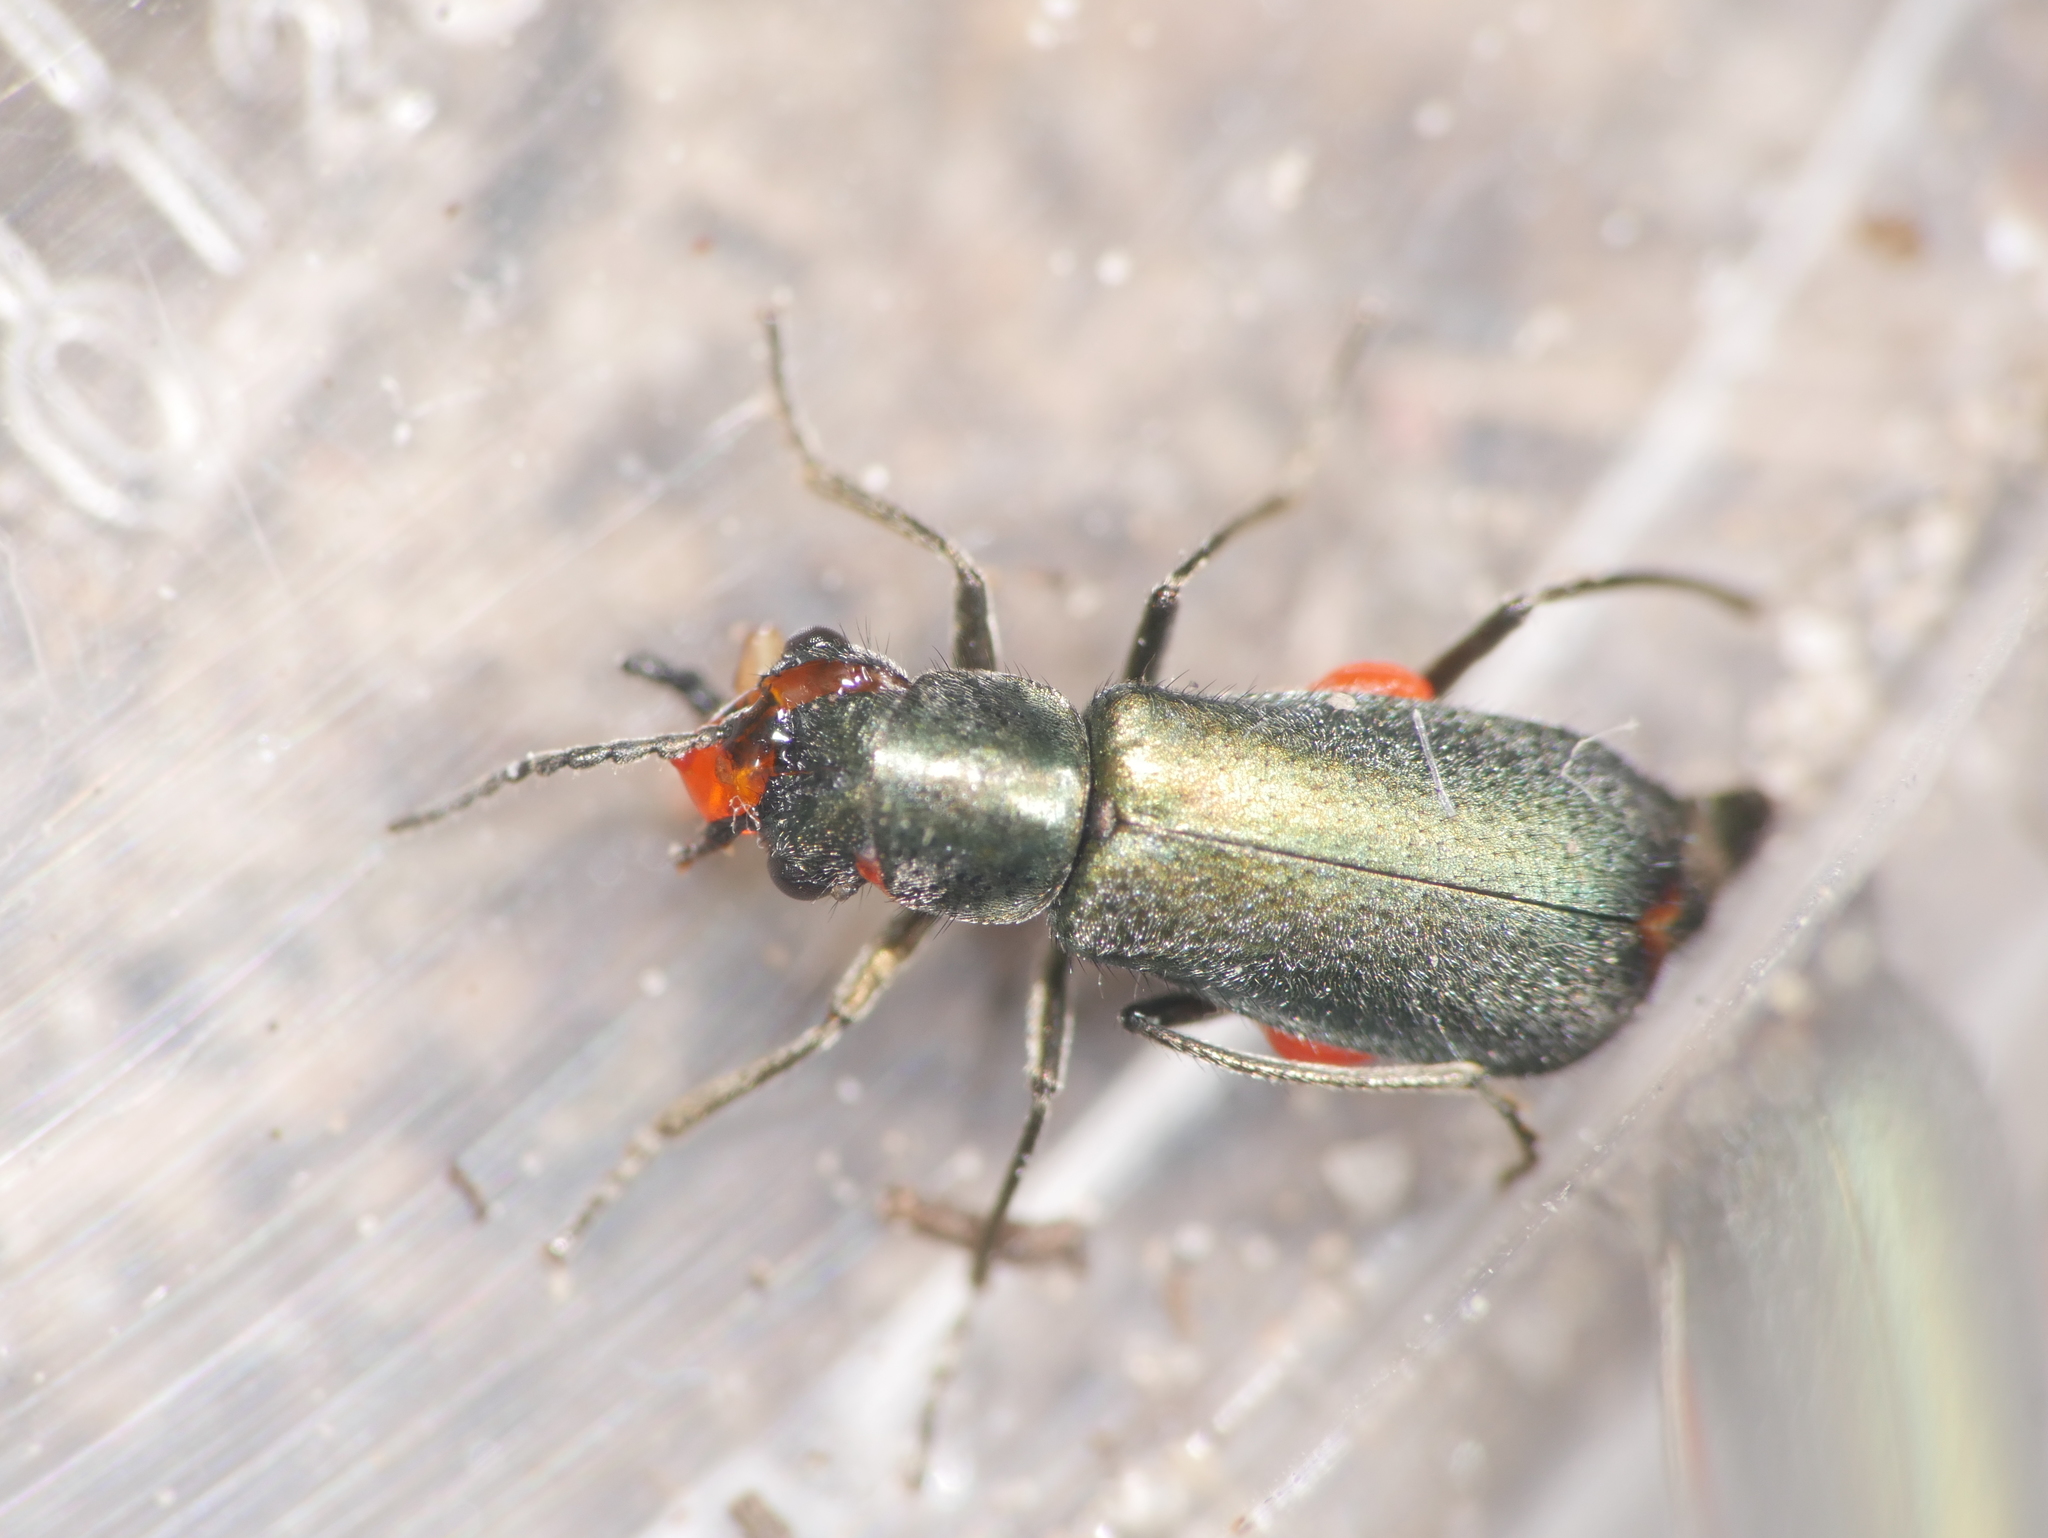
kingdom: Animalia
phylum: Arthropoda
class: Insecta
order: Coleoptera
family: Malachiidae
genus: Cordylepherus
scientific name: Cordylepherus viridis
